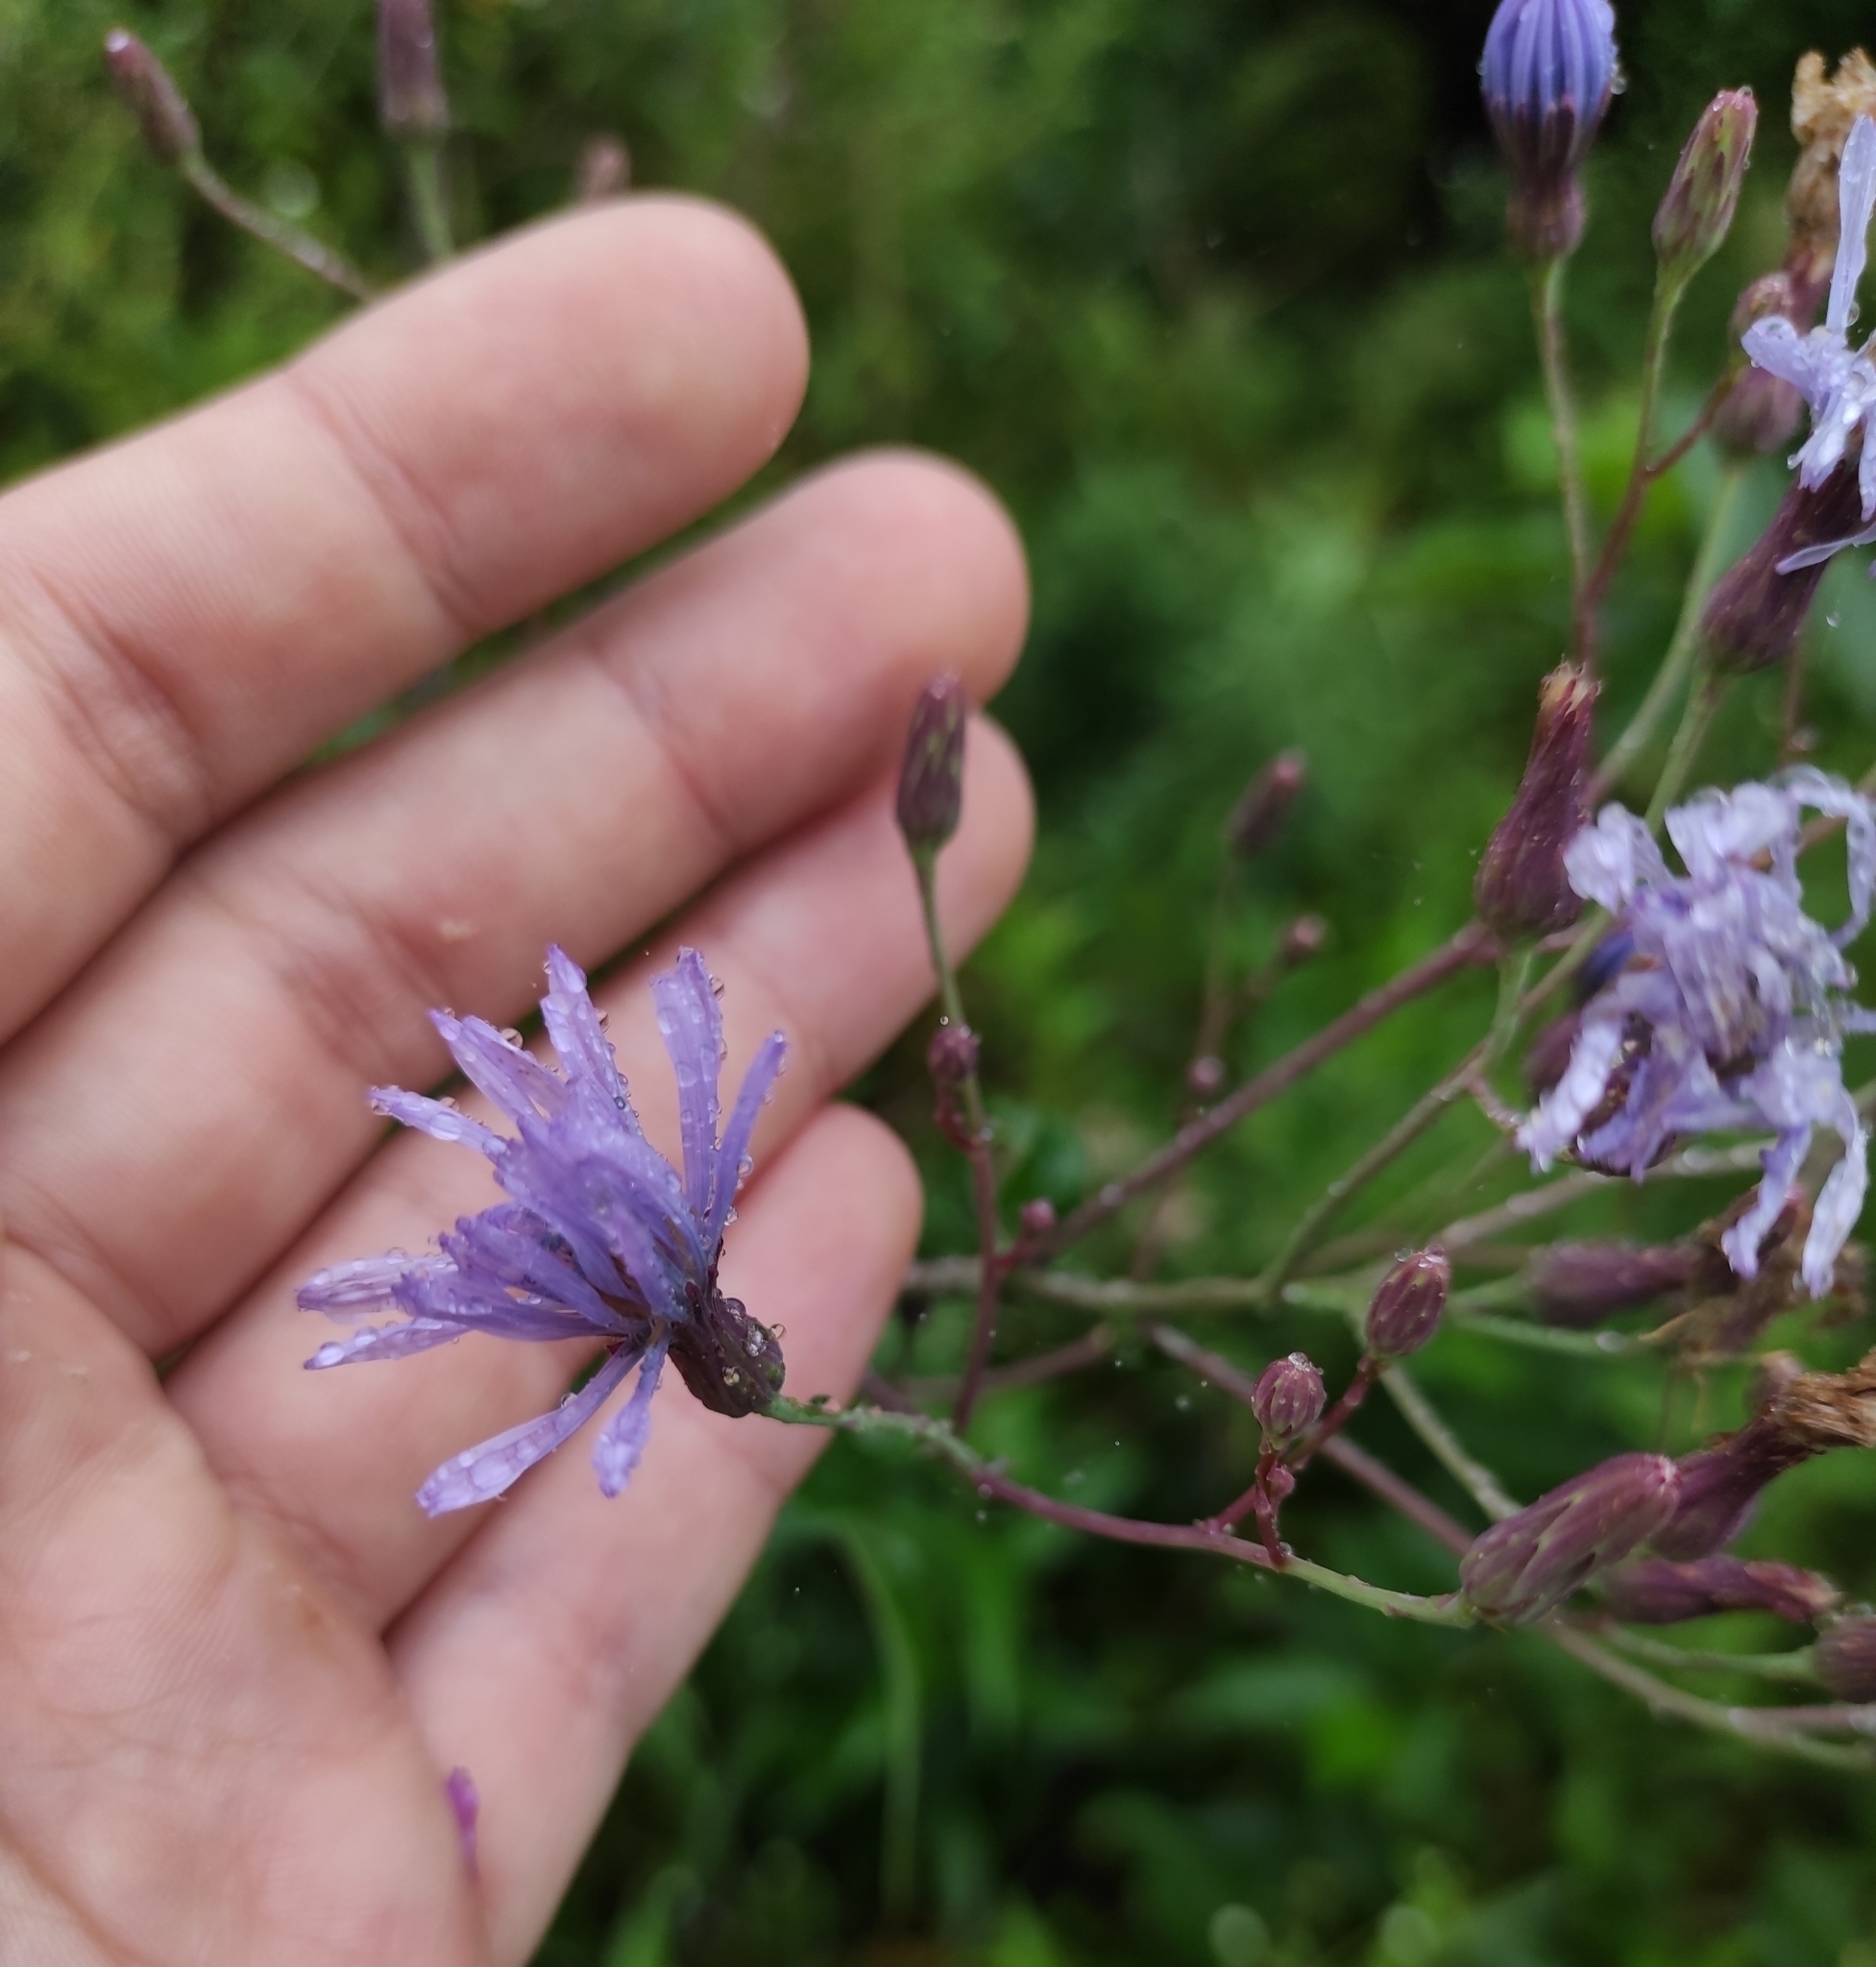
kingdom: Plantae
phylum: Tracheophyta
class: Magnoliopsida
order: Asterales
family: Asteraceae
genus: Lactuca
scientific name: Lactuca sibirica
